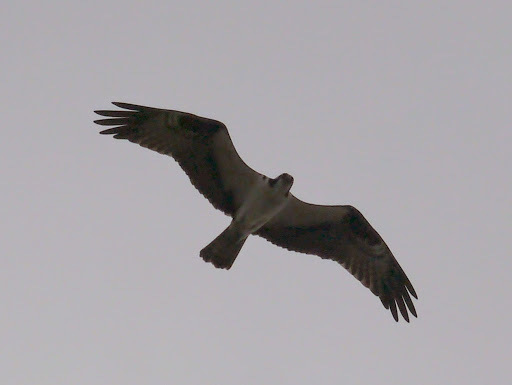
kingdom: Animalia
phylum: Chordata
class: Aves
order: Accipitriformes
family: Pandionidae
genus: Pandion
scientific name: Pandion haliaetus
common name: Osprey
